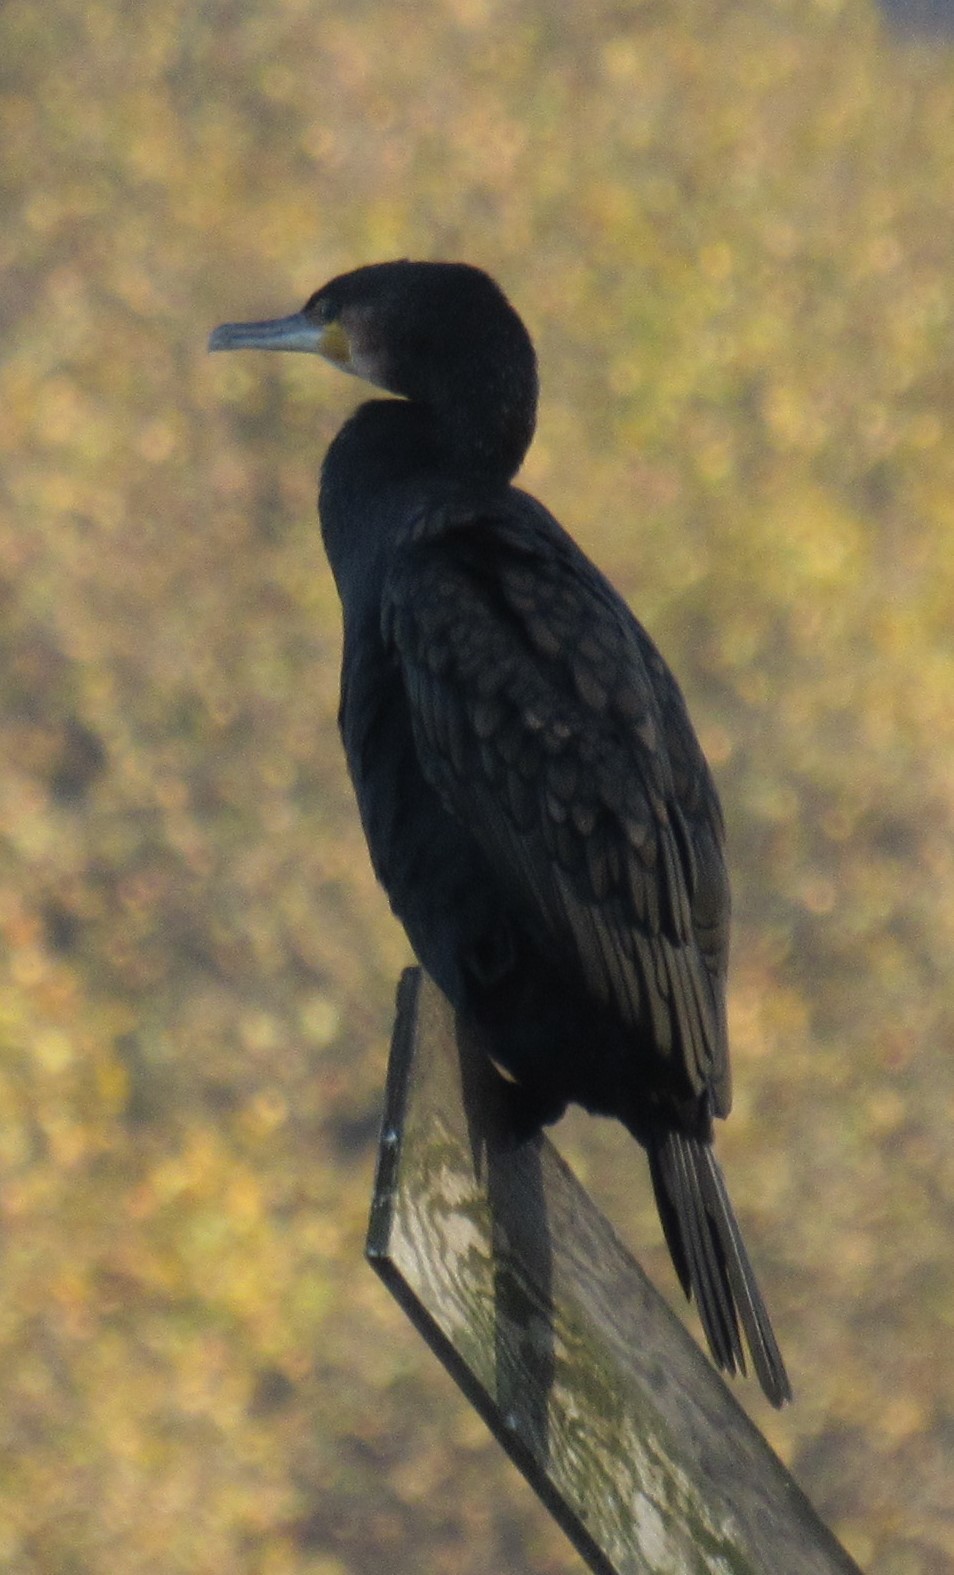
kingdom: Animalia
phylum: Chordata
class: Aves
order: Suliformes
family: Phalacrocoracidae
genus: Phalacrocorax
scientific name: Phalacrocorax carbo
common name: Great cormorant
